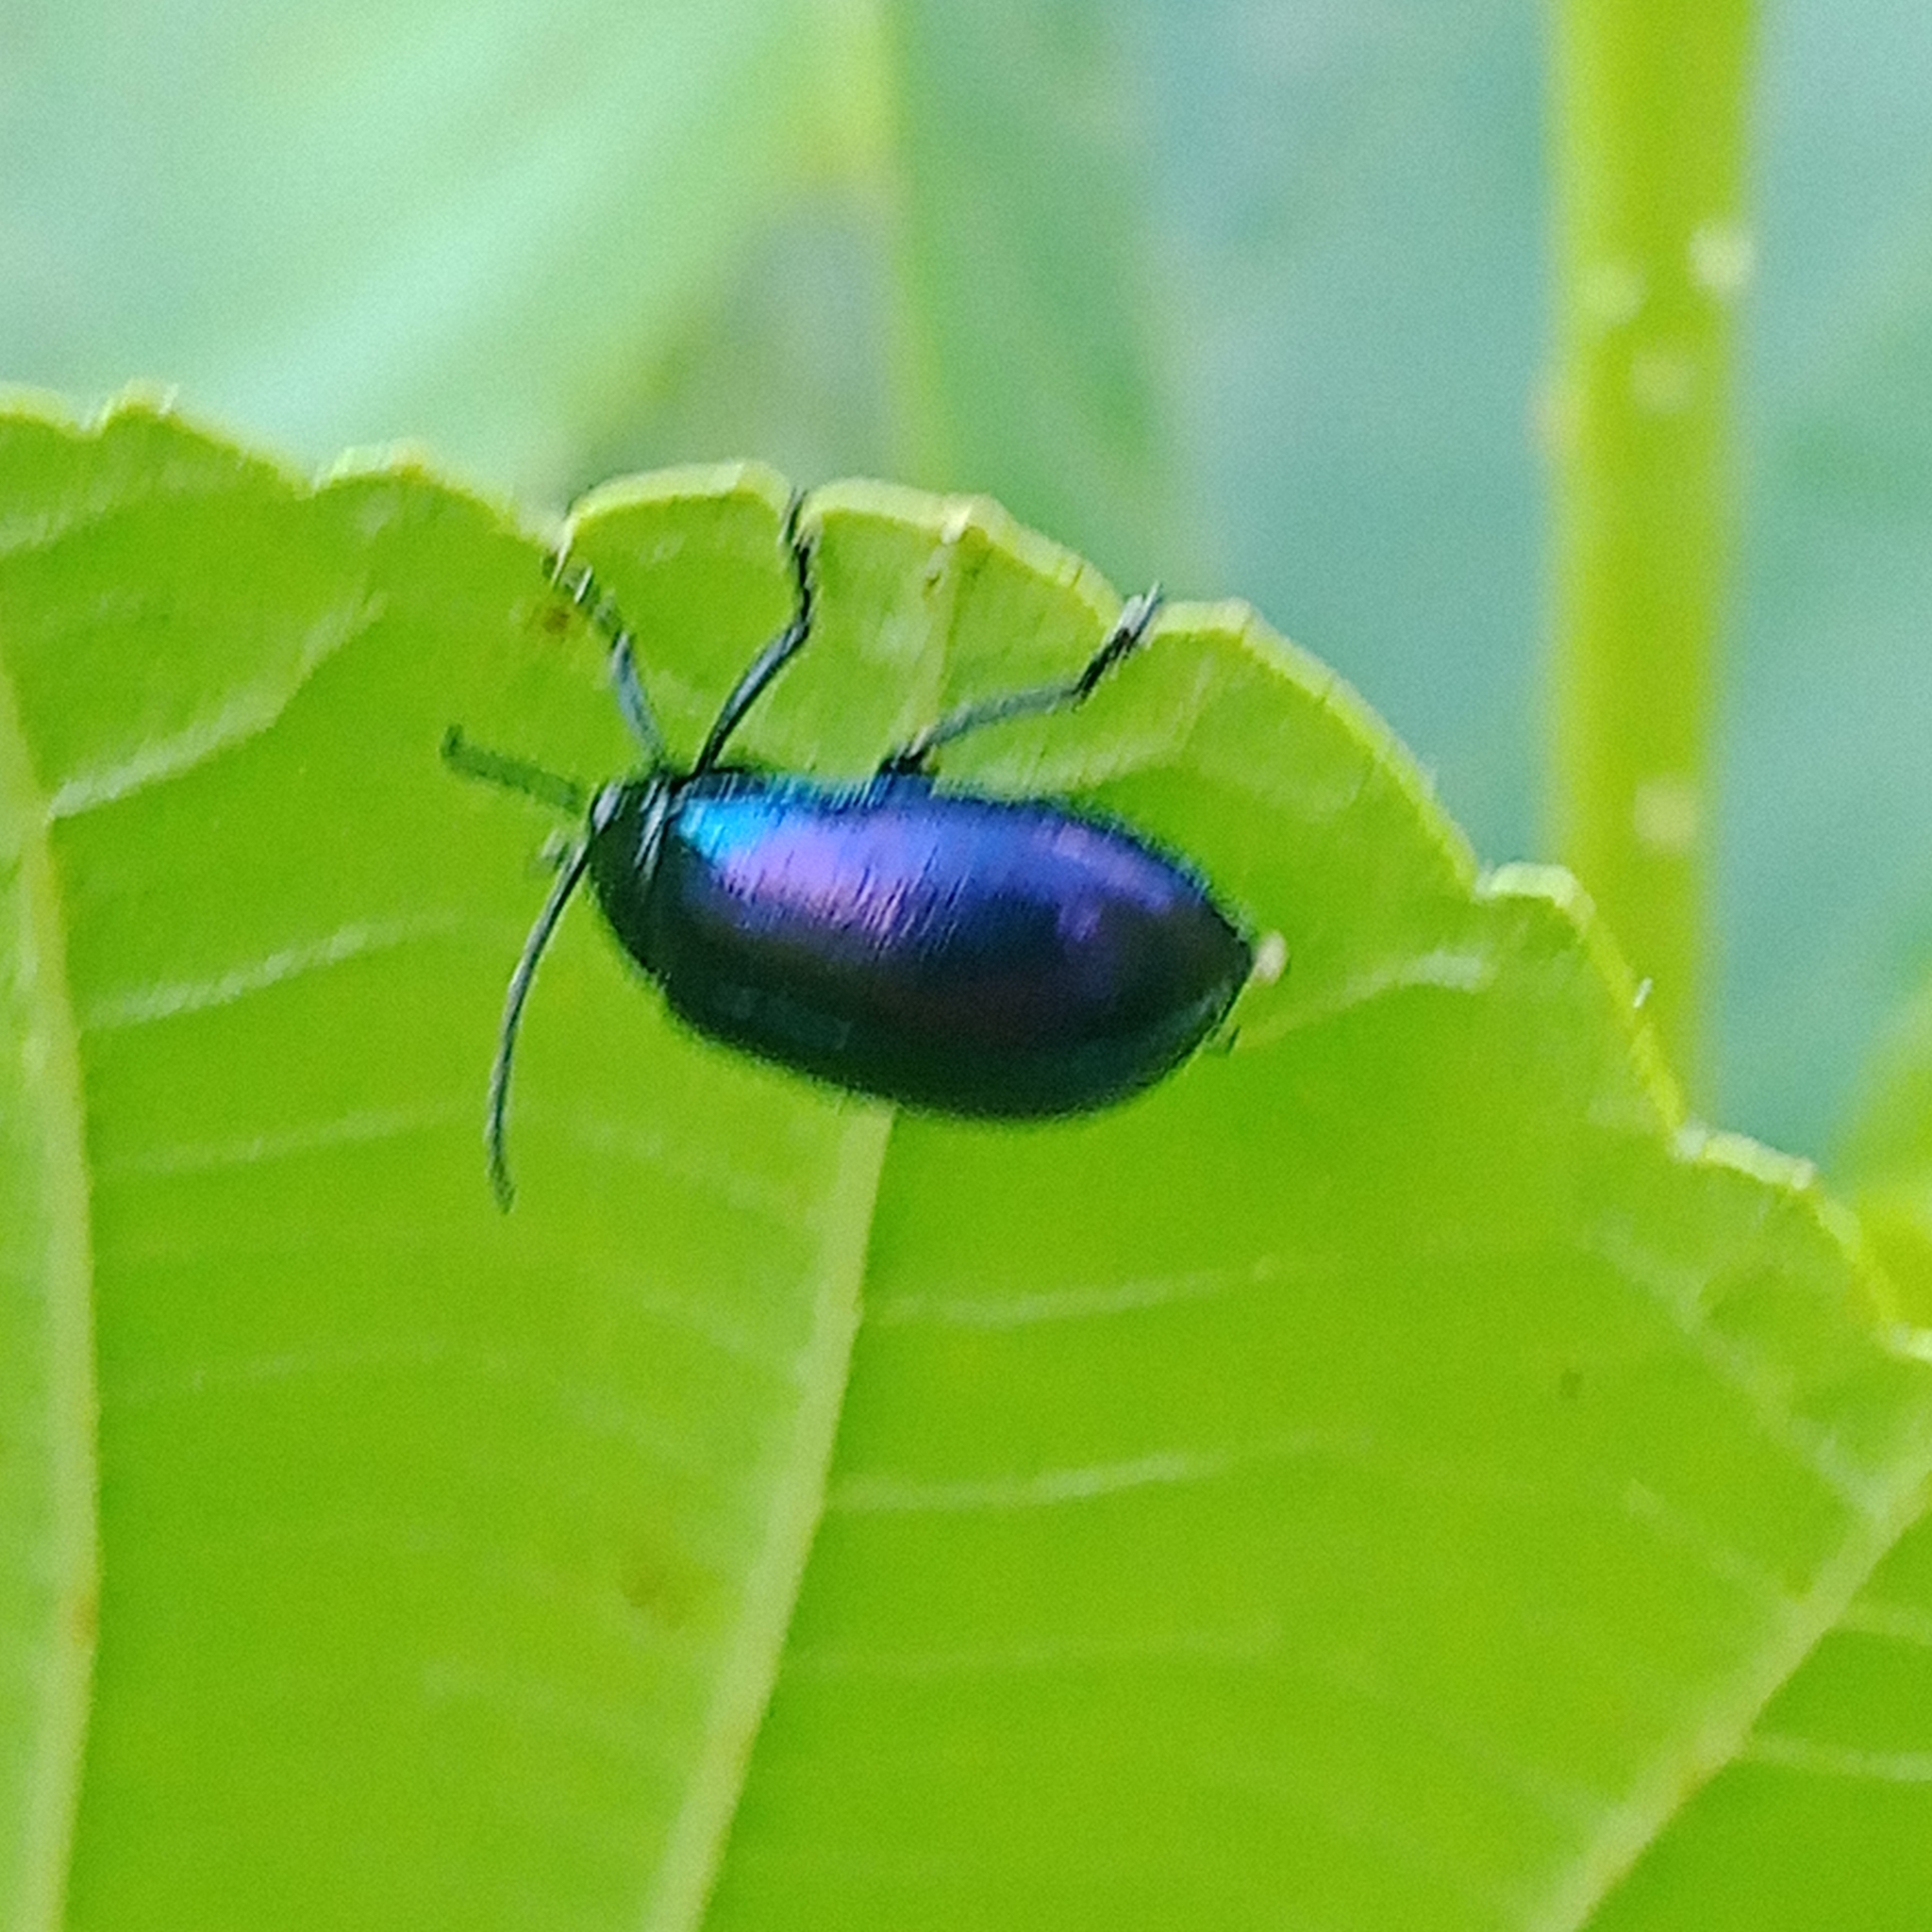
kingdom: Animalia
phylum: Arthropoda
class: Insecta
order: Coleoptera
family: Chrysomelidae
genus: Agelastica
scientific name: Agelastica alni
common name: Alder leaf beetle
